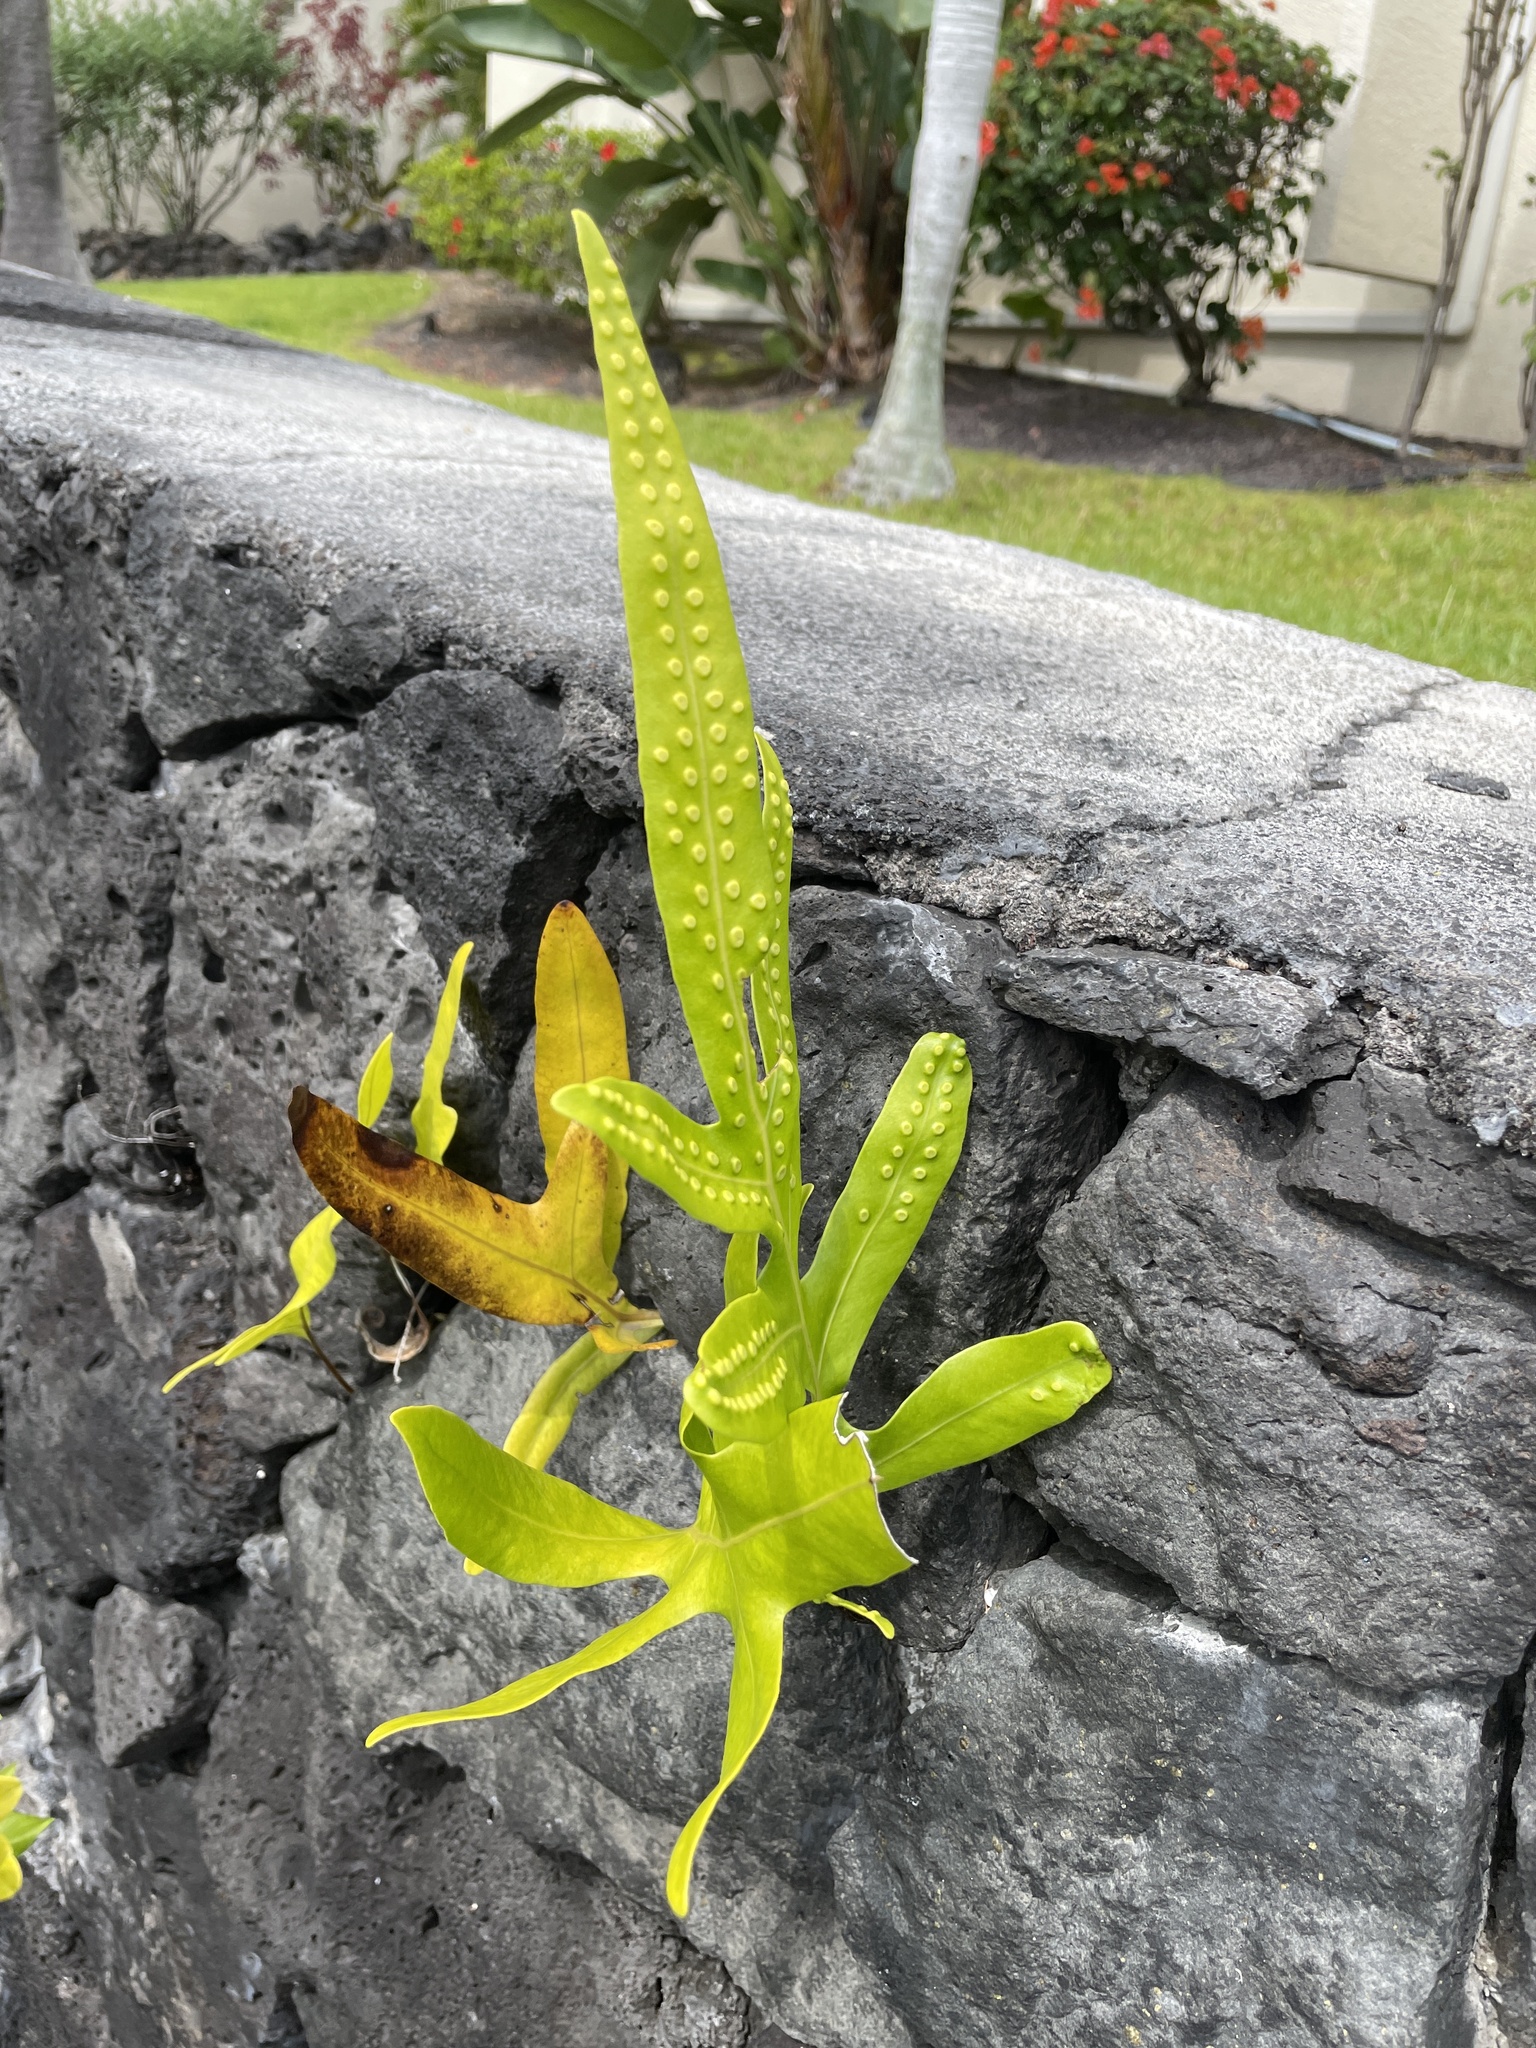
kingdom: Plantae
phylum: Tracheophyta
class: Polypodiopsida
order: Polypodiales
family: Polypodiaceae
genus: Microsorum
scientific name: Microsorum grossum
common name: Musk fern
